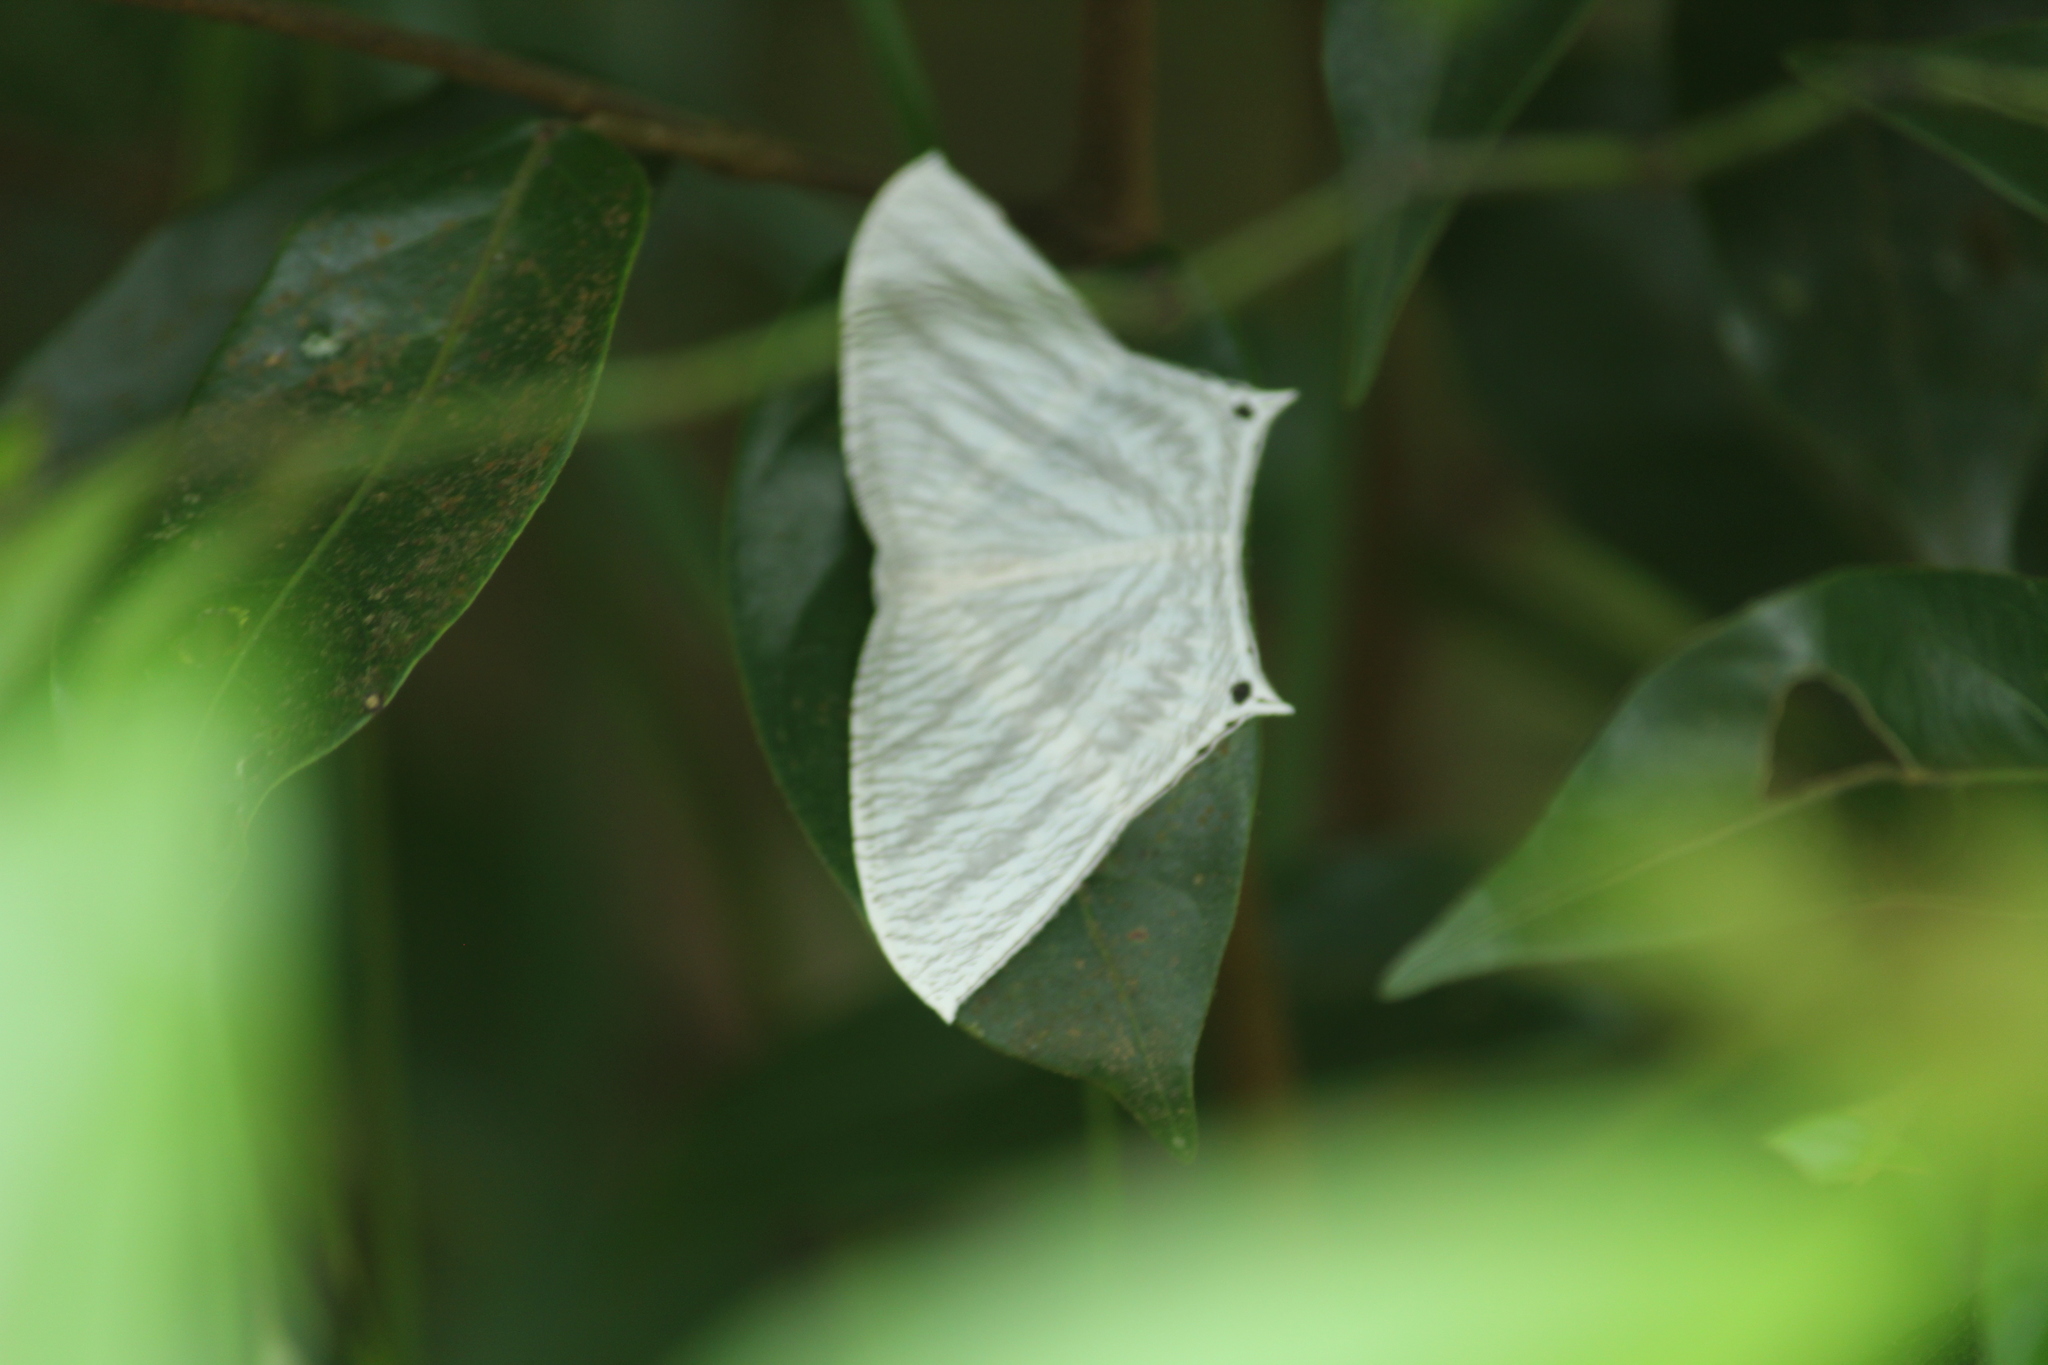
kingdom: Animalia
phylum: Arthropoda
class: Insecta
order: Lepidoptera
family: Uraniidae
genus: Micronia
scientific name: Micronia aculeata
